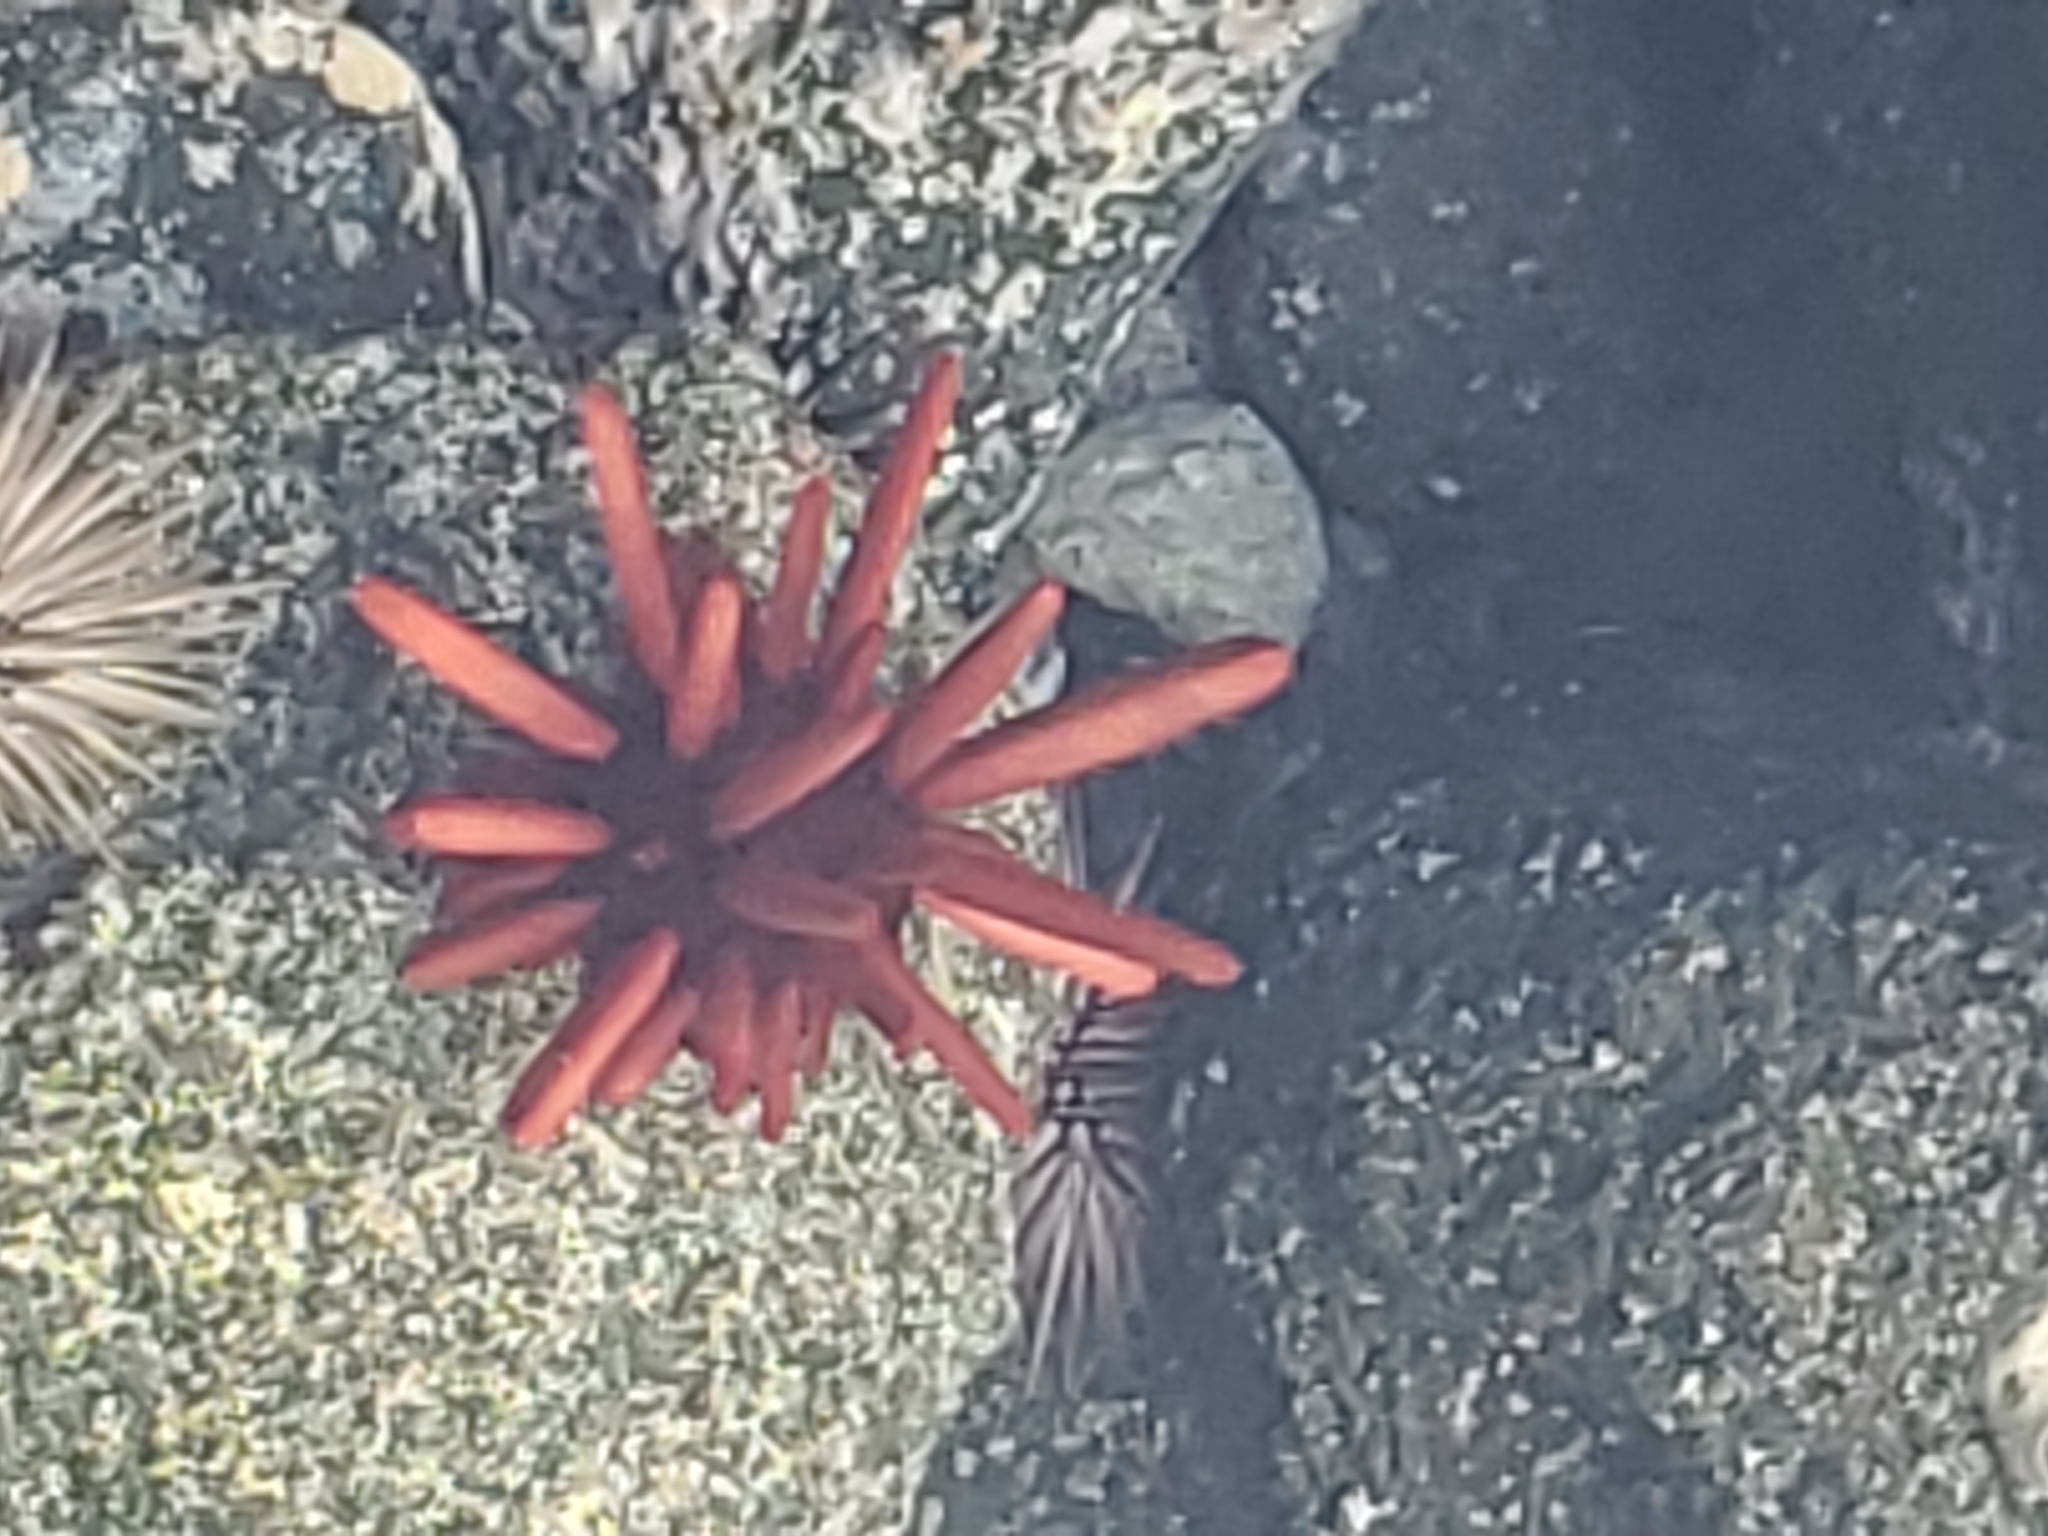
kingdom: Animalia
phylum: Echinodermata
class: Echinoidea
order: Camarodonta
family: Echinometridae
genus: Heterocentrotus
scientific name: Heterocentrotus mamillatus
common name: Slate pencil urchin
